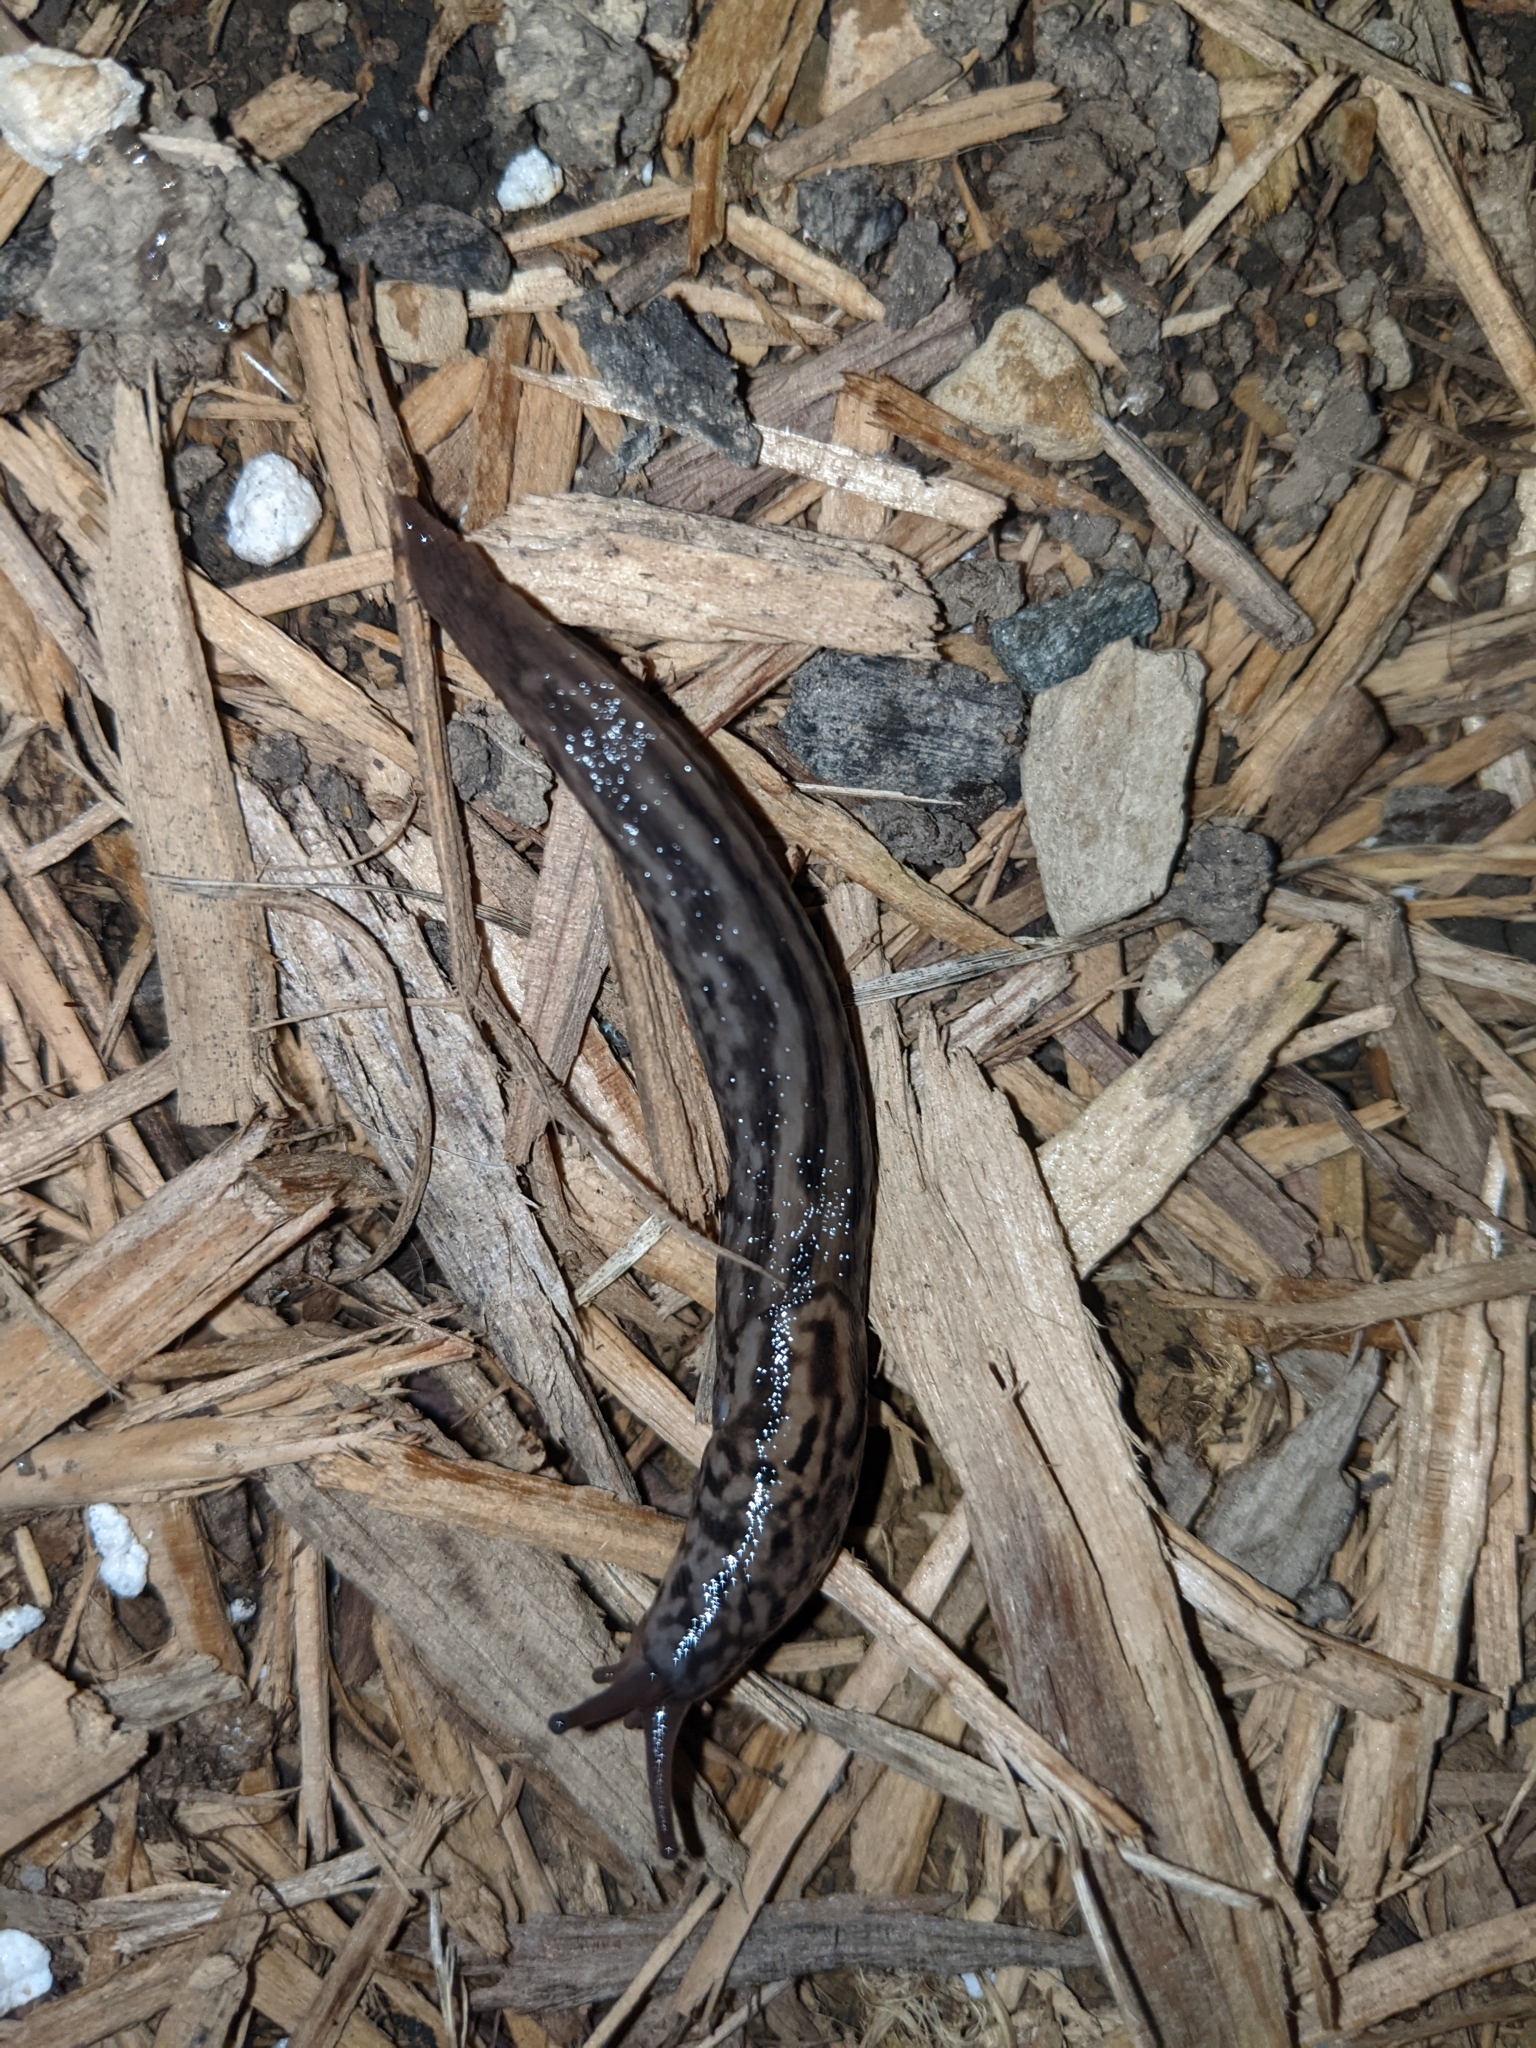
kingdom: Animalia
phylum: Mollusca
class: Gastropoda
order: Stylommatophora
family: Limacidae
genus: Limax
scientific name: Limax maximus
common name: Great grey slug
